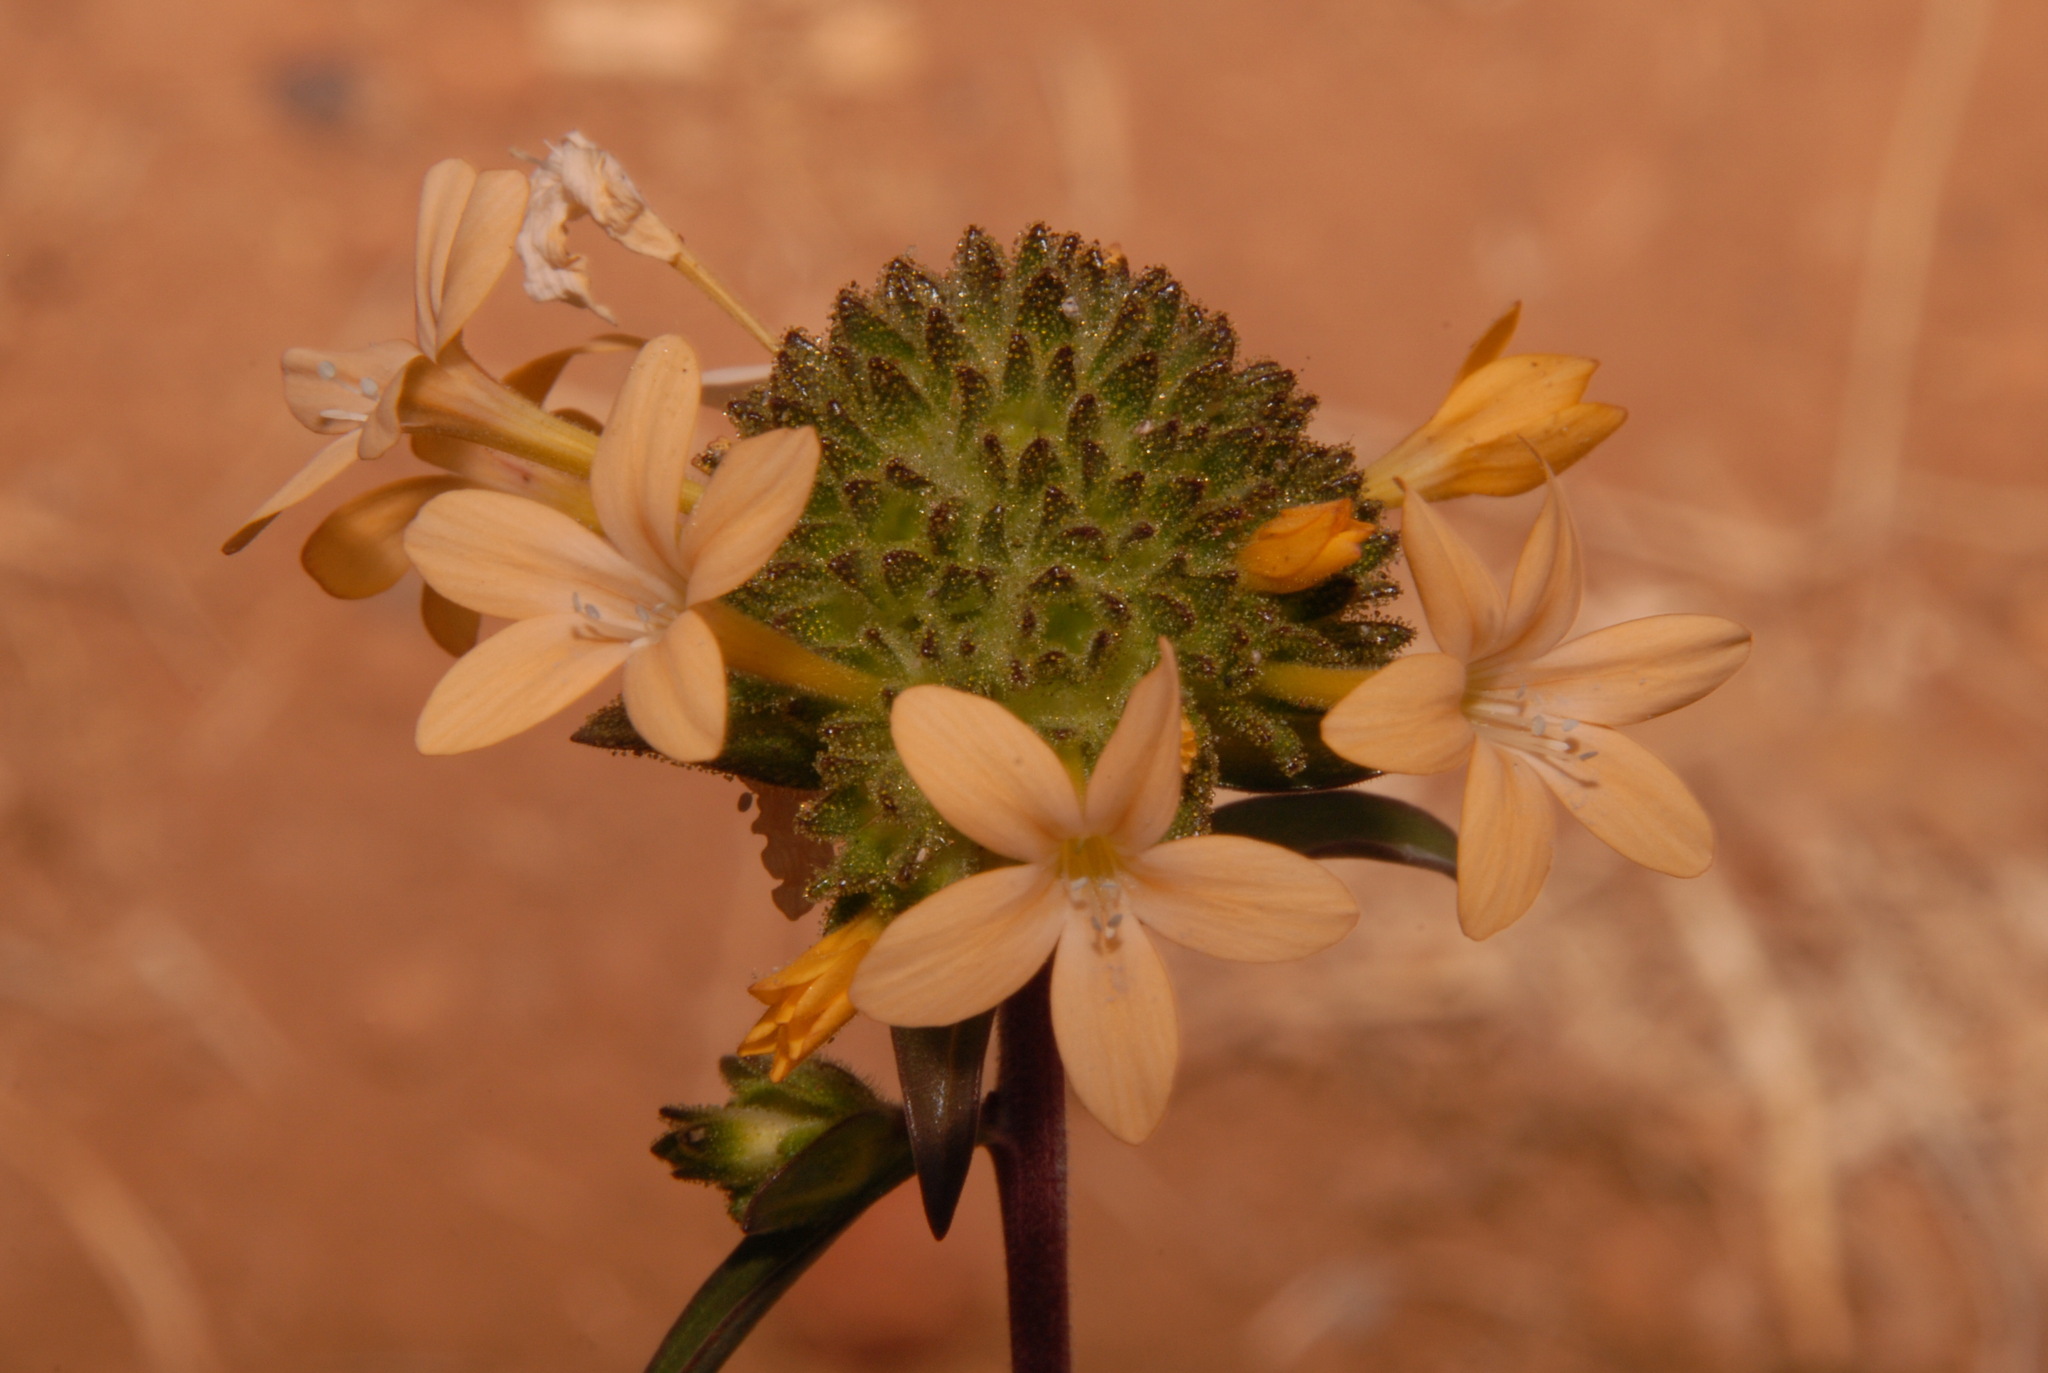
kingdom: Plantae
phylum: Tracheophyta
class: Magnoliopsida
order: Ericales
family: Polemoniaceae
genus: Collomia
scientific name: Collomia grandiflora
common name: California strawflower
